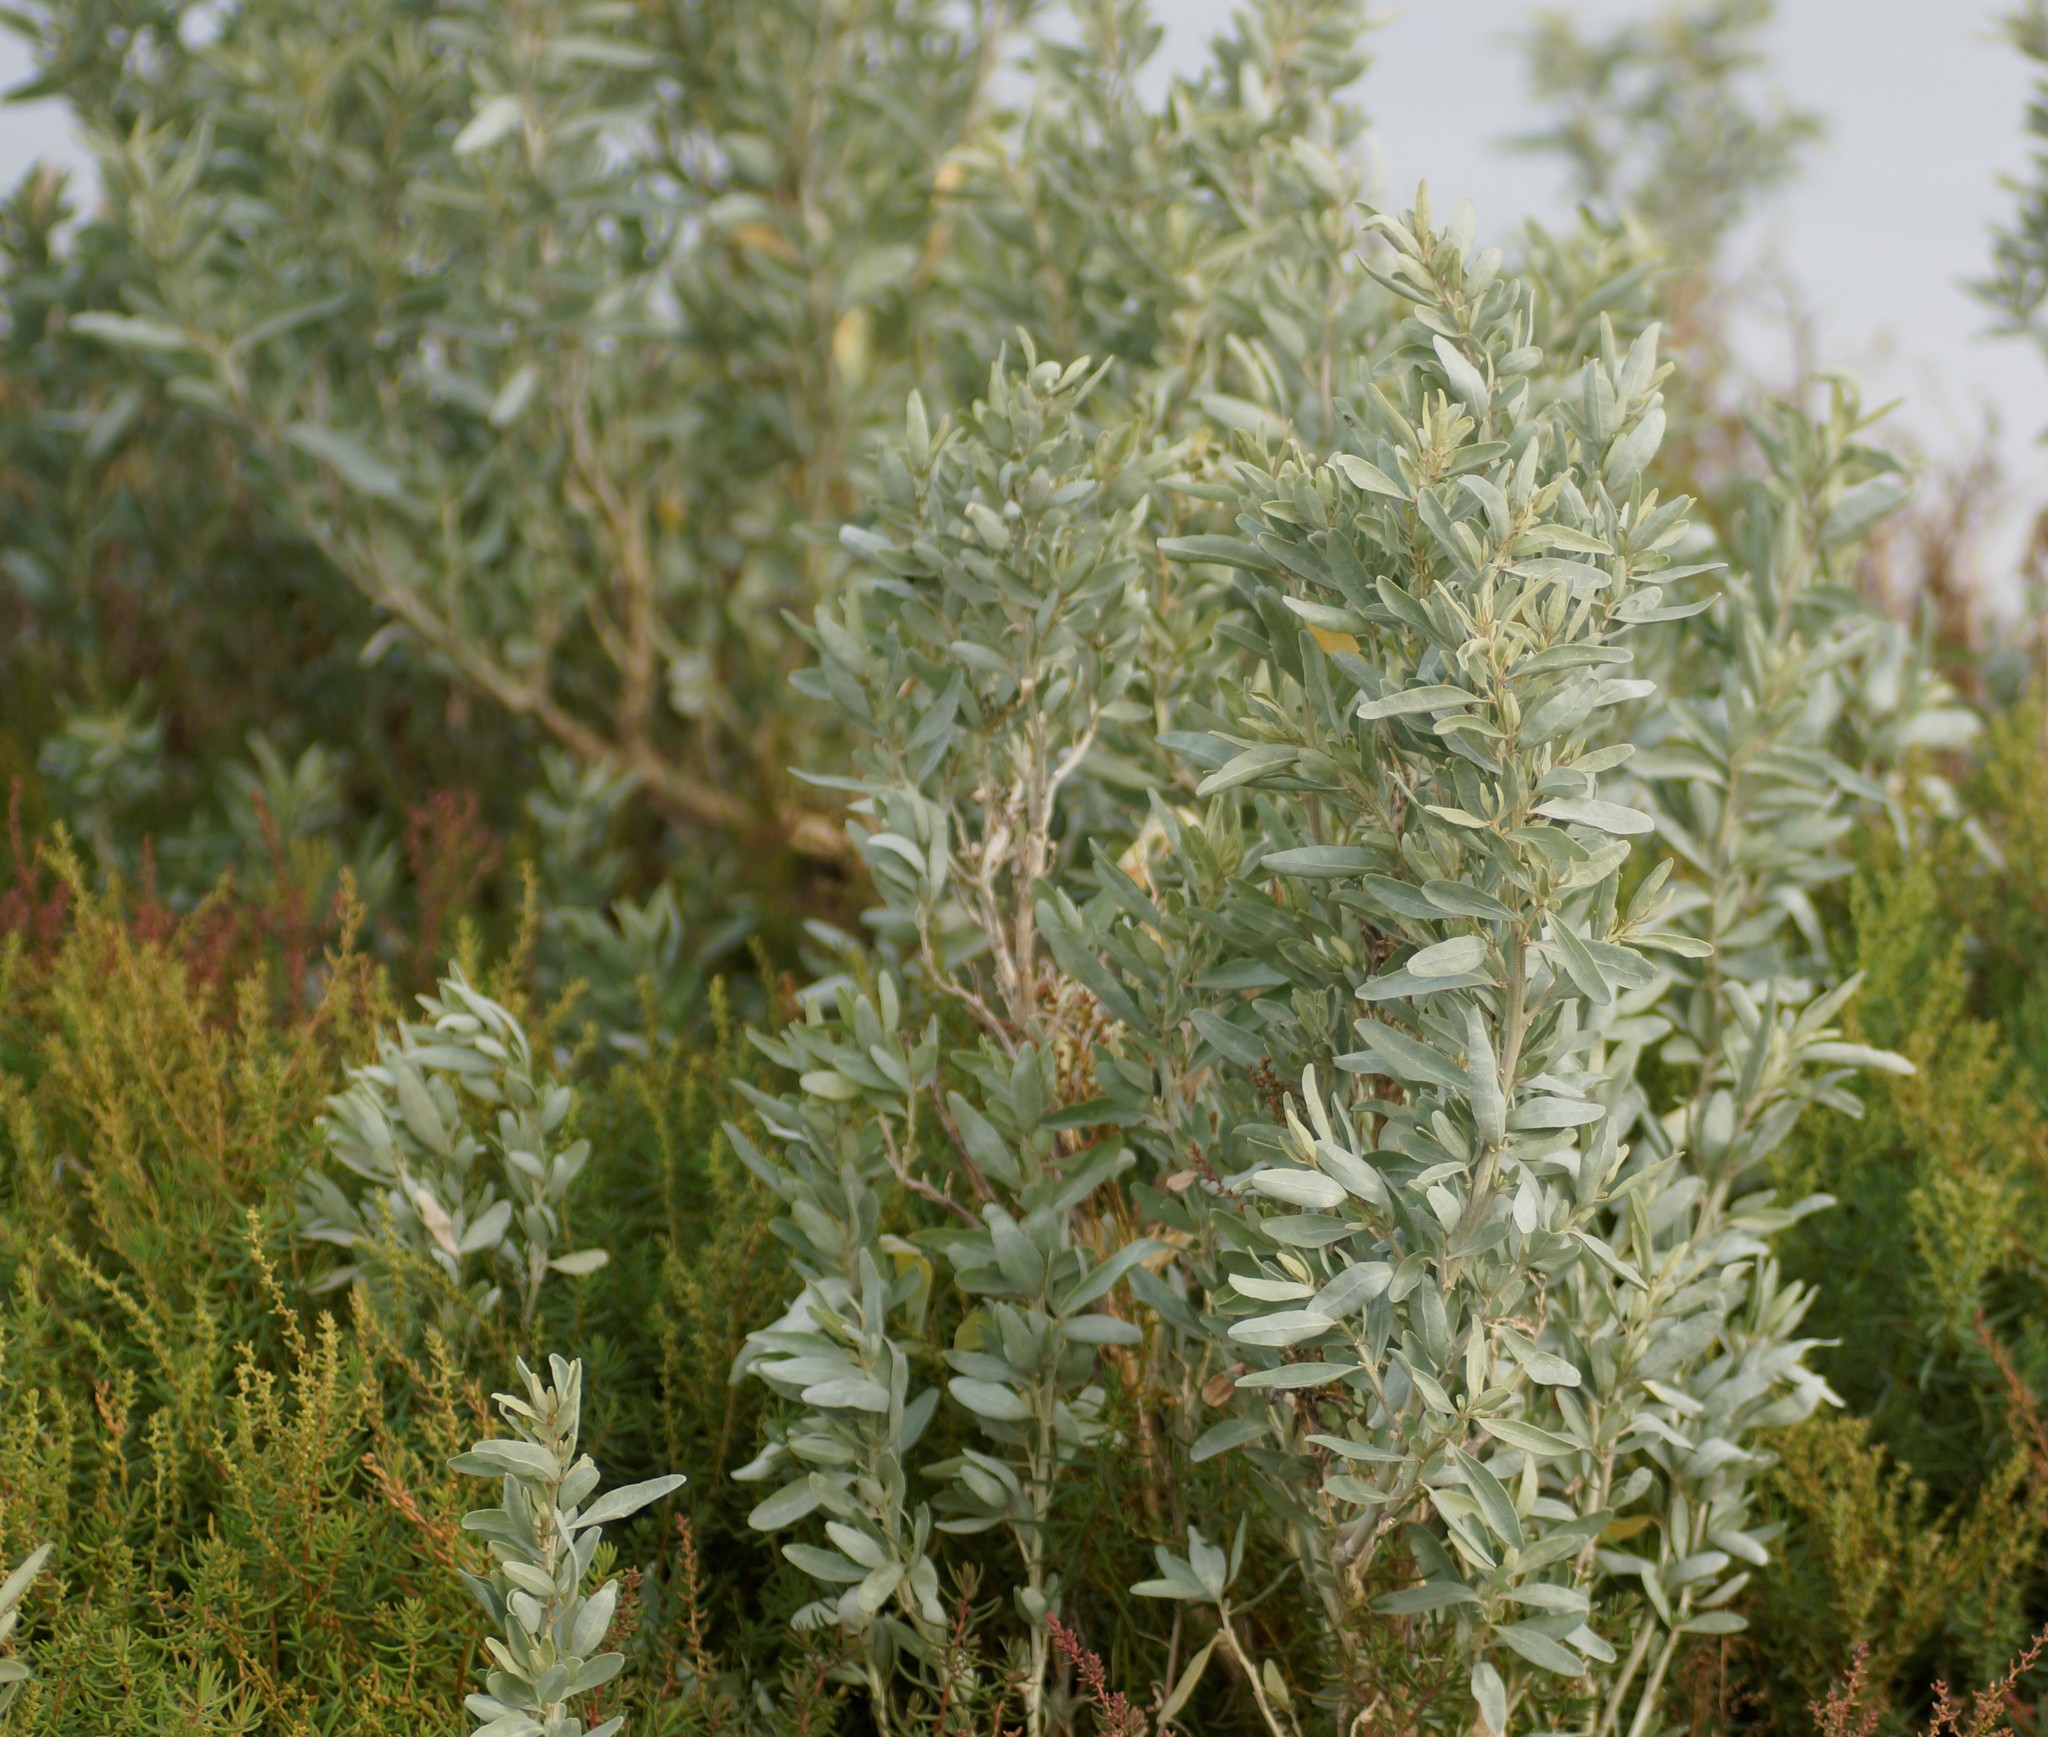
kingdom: Plantae
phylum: Tracheophyta
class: Magnoliopsida
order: Caryophyllales
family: Amaranthaceae
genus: Atriplex
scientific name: Atriplex cinerea
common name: Grey saltbush
